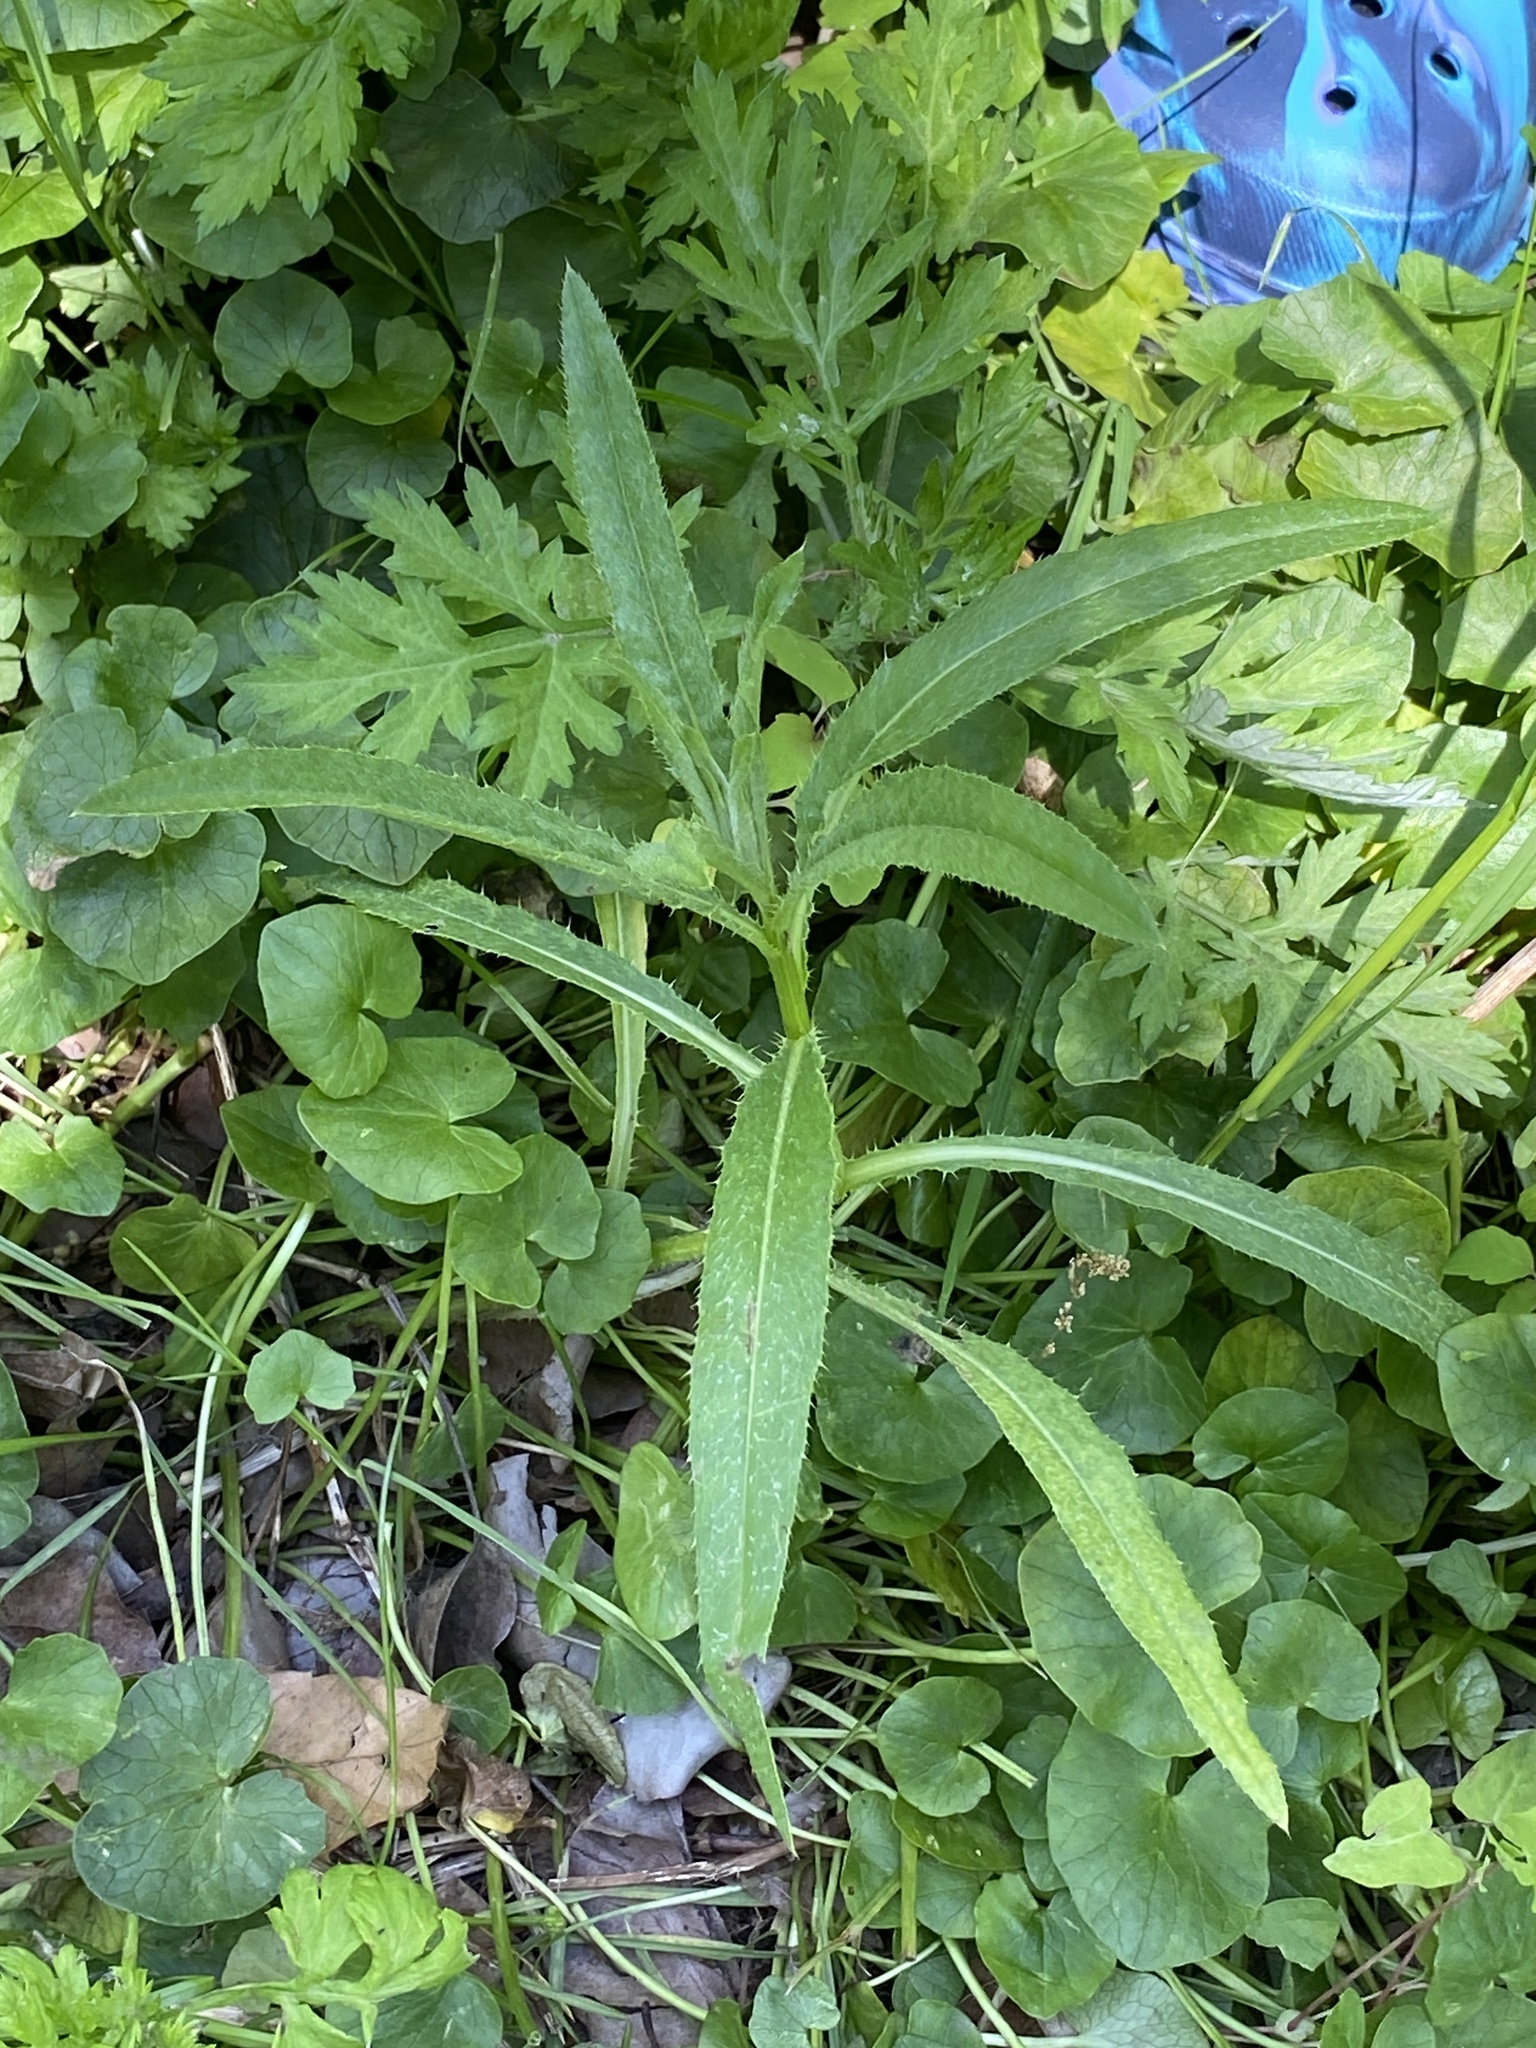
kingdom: Plantae
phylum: Tracheophyta
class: Magnoliopsida
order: Asterales
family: Asteraceae
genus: Cirsium
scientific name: Cirsium arvense
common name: Creeping thistle
